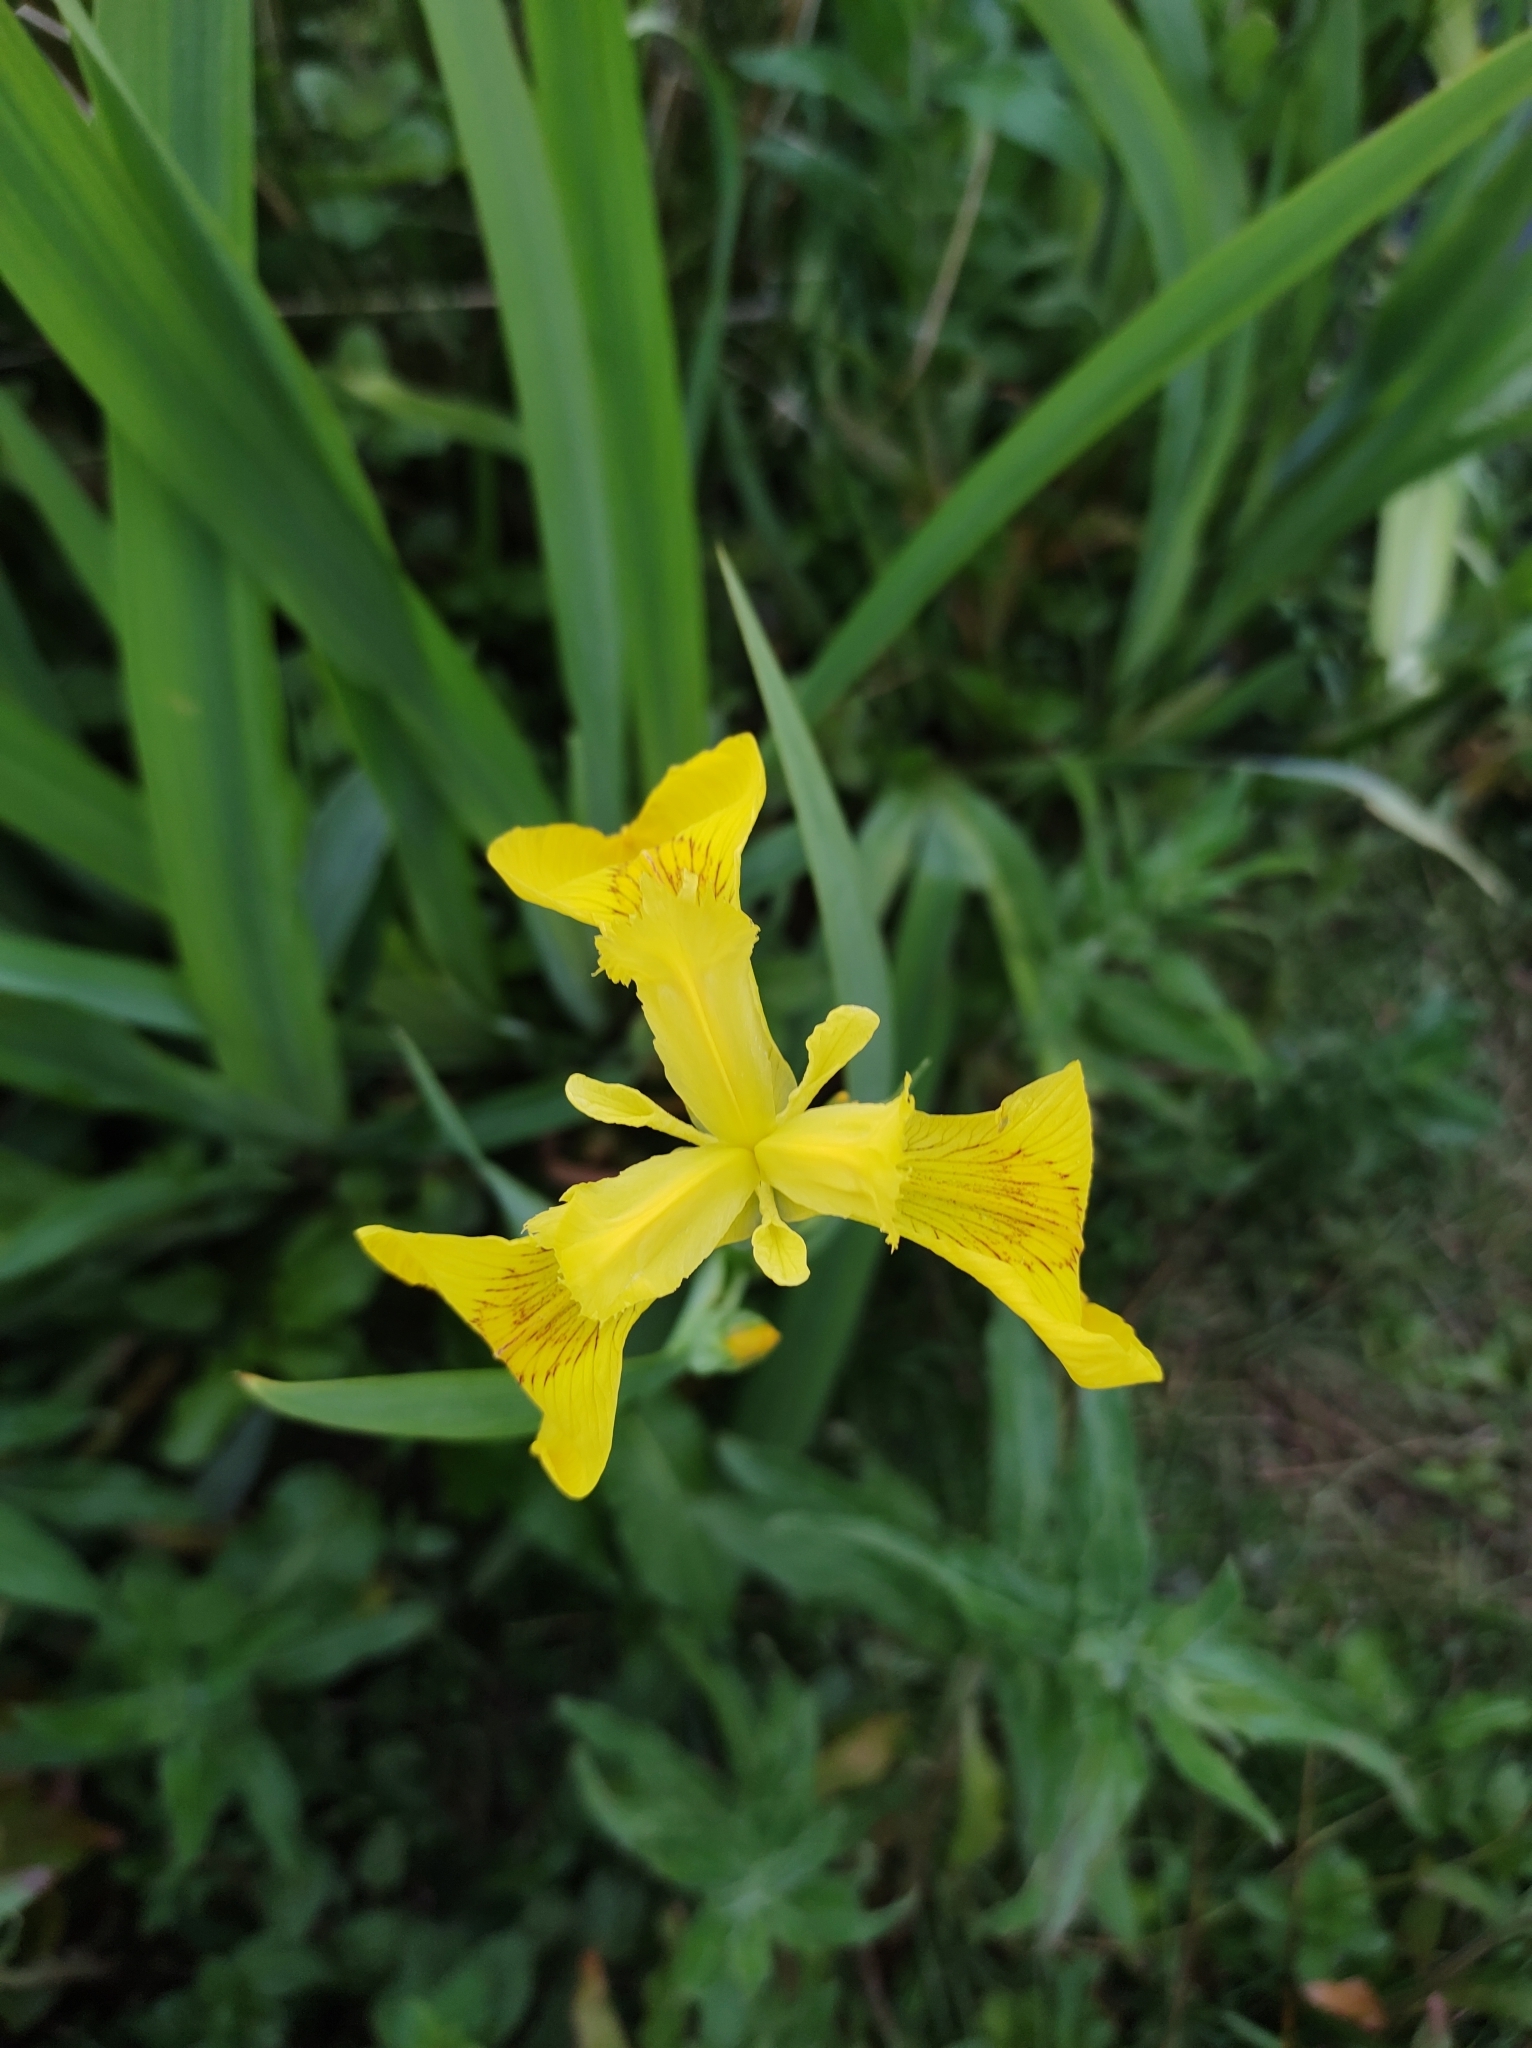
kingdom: Plantae
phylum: Tracheophyta
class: Liliopsida
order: Asparagales
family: Iridaceae
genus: Iris
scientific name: Iris pseudacorus
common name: Yellow flag
